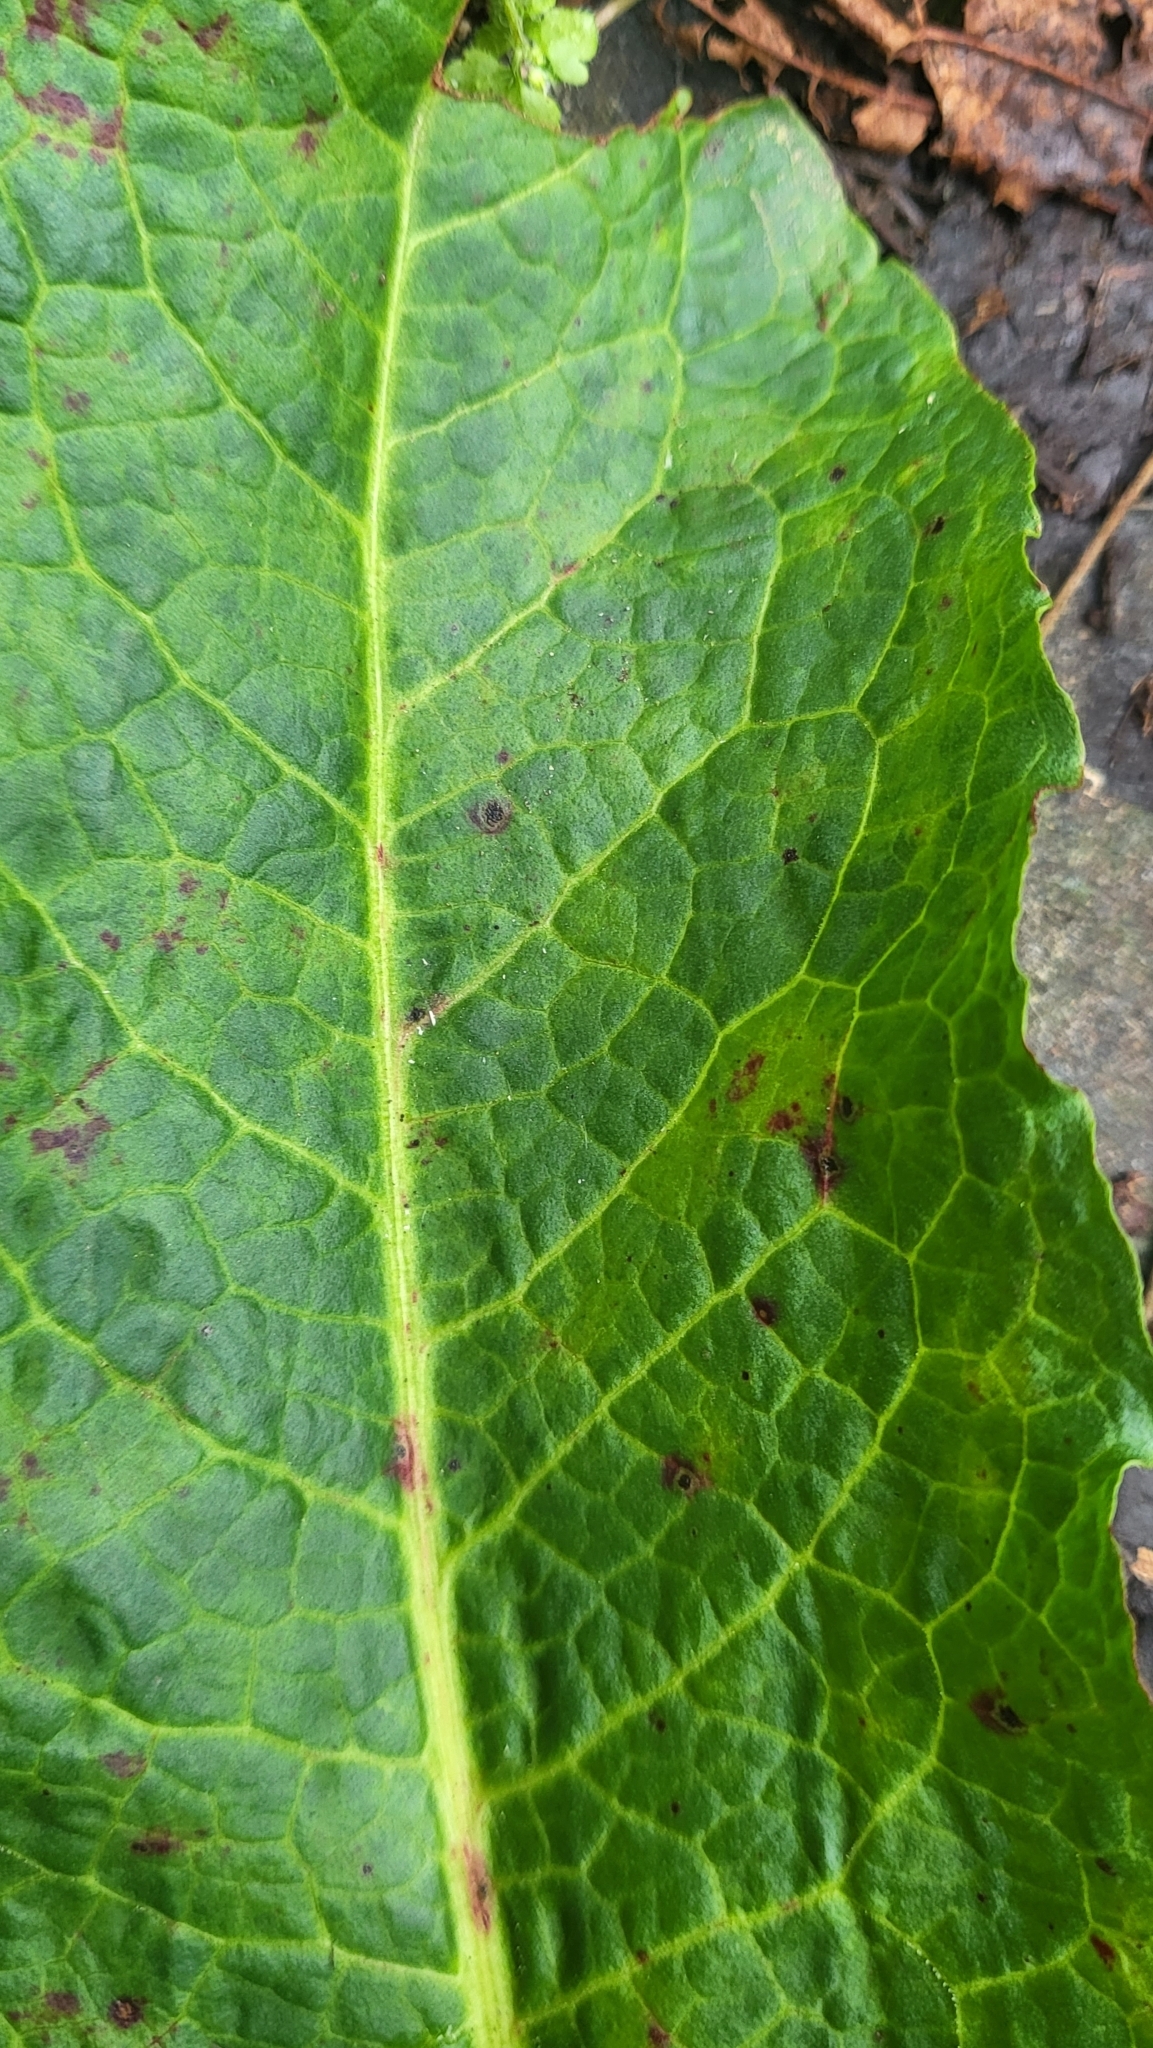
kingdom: Fungi
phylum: Ascomycota
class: Dothideomycetes
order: Mycosphaerellales
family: Mycosphaerellaceae
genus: Ramularia
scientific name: Ramularia rubella
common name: Red dock spot
